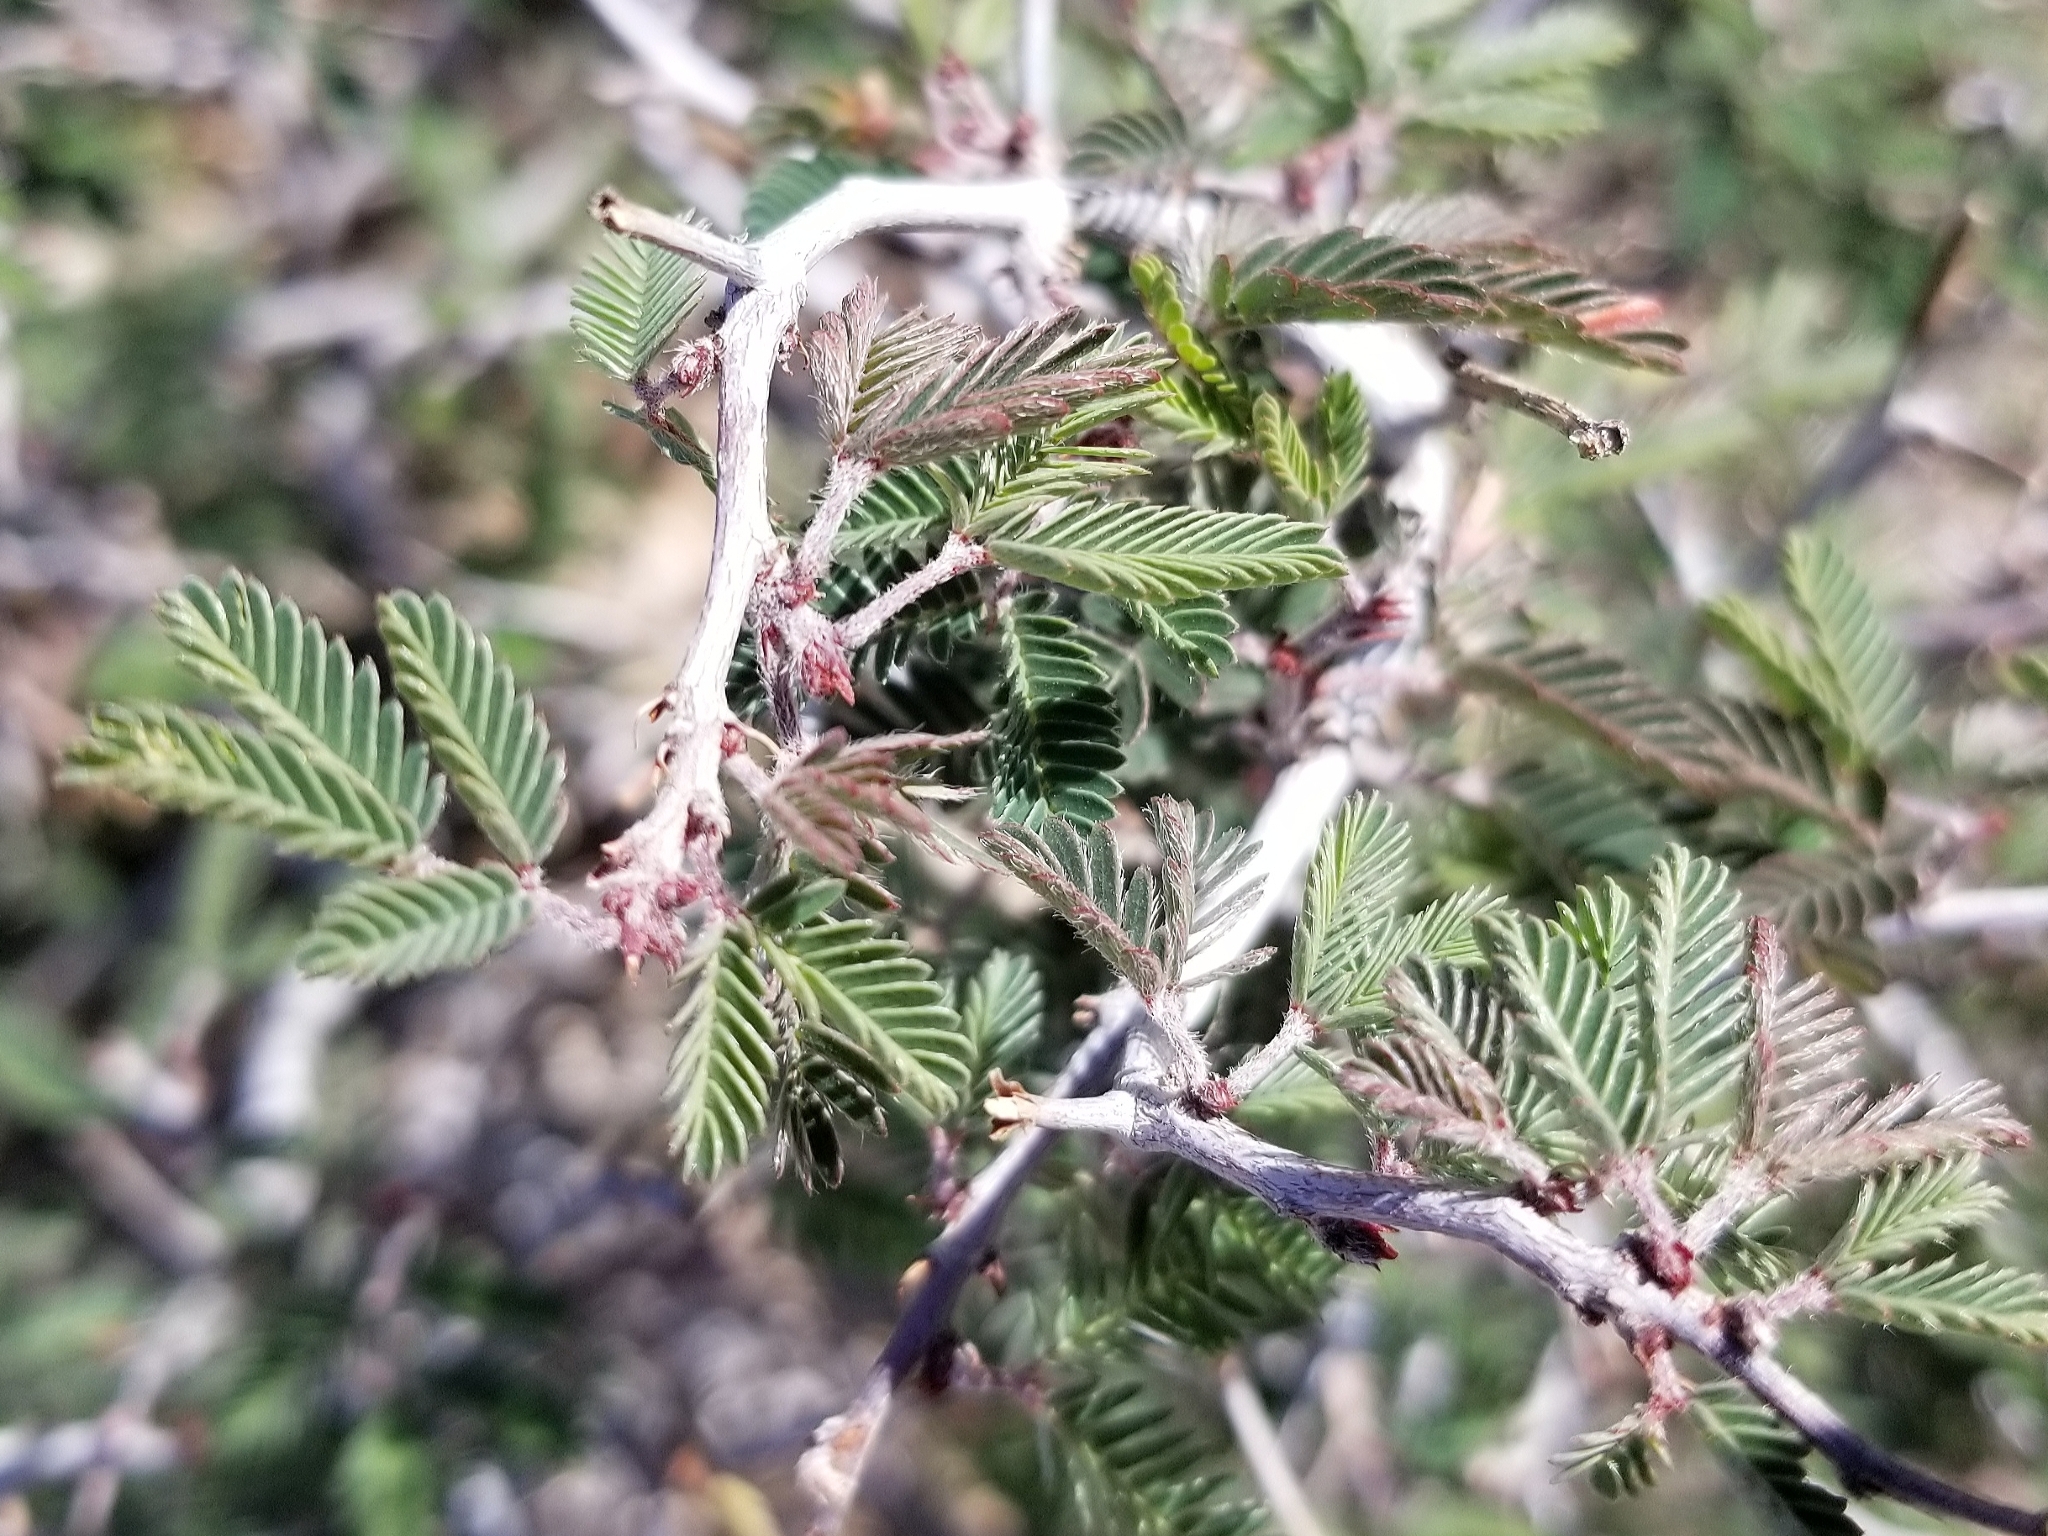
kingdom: Plantae
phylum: Tracheophyta
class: Magnoliopsida
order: Fabales
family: Fabaceae
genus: Calliandra
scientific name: Calliandra eriophylla
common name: Fairy-duster
